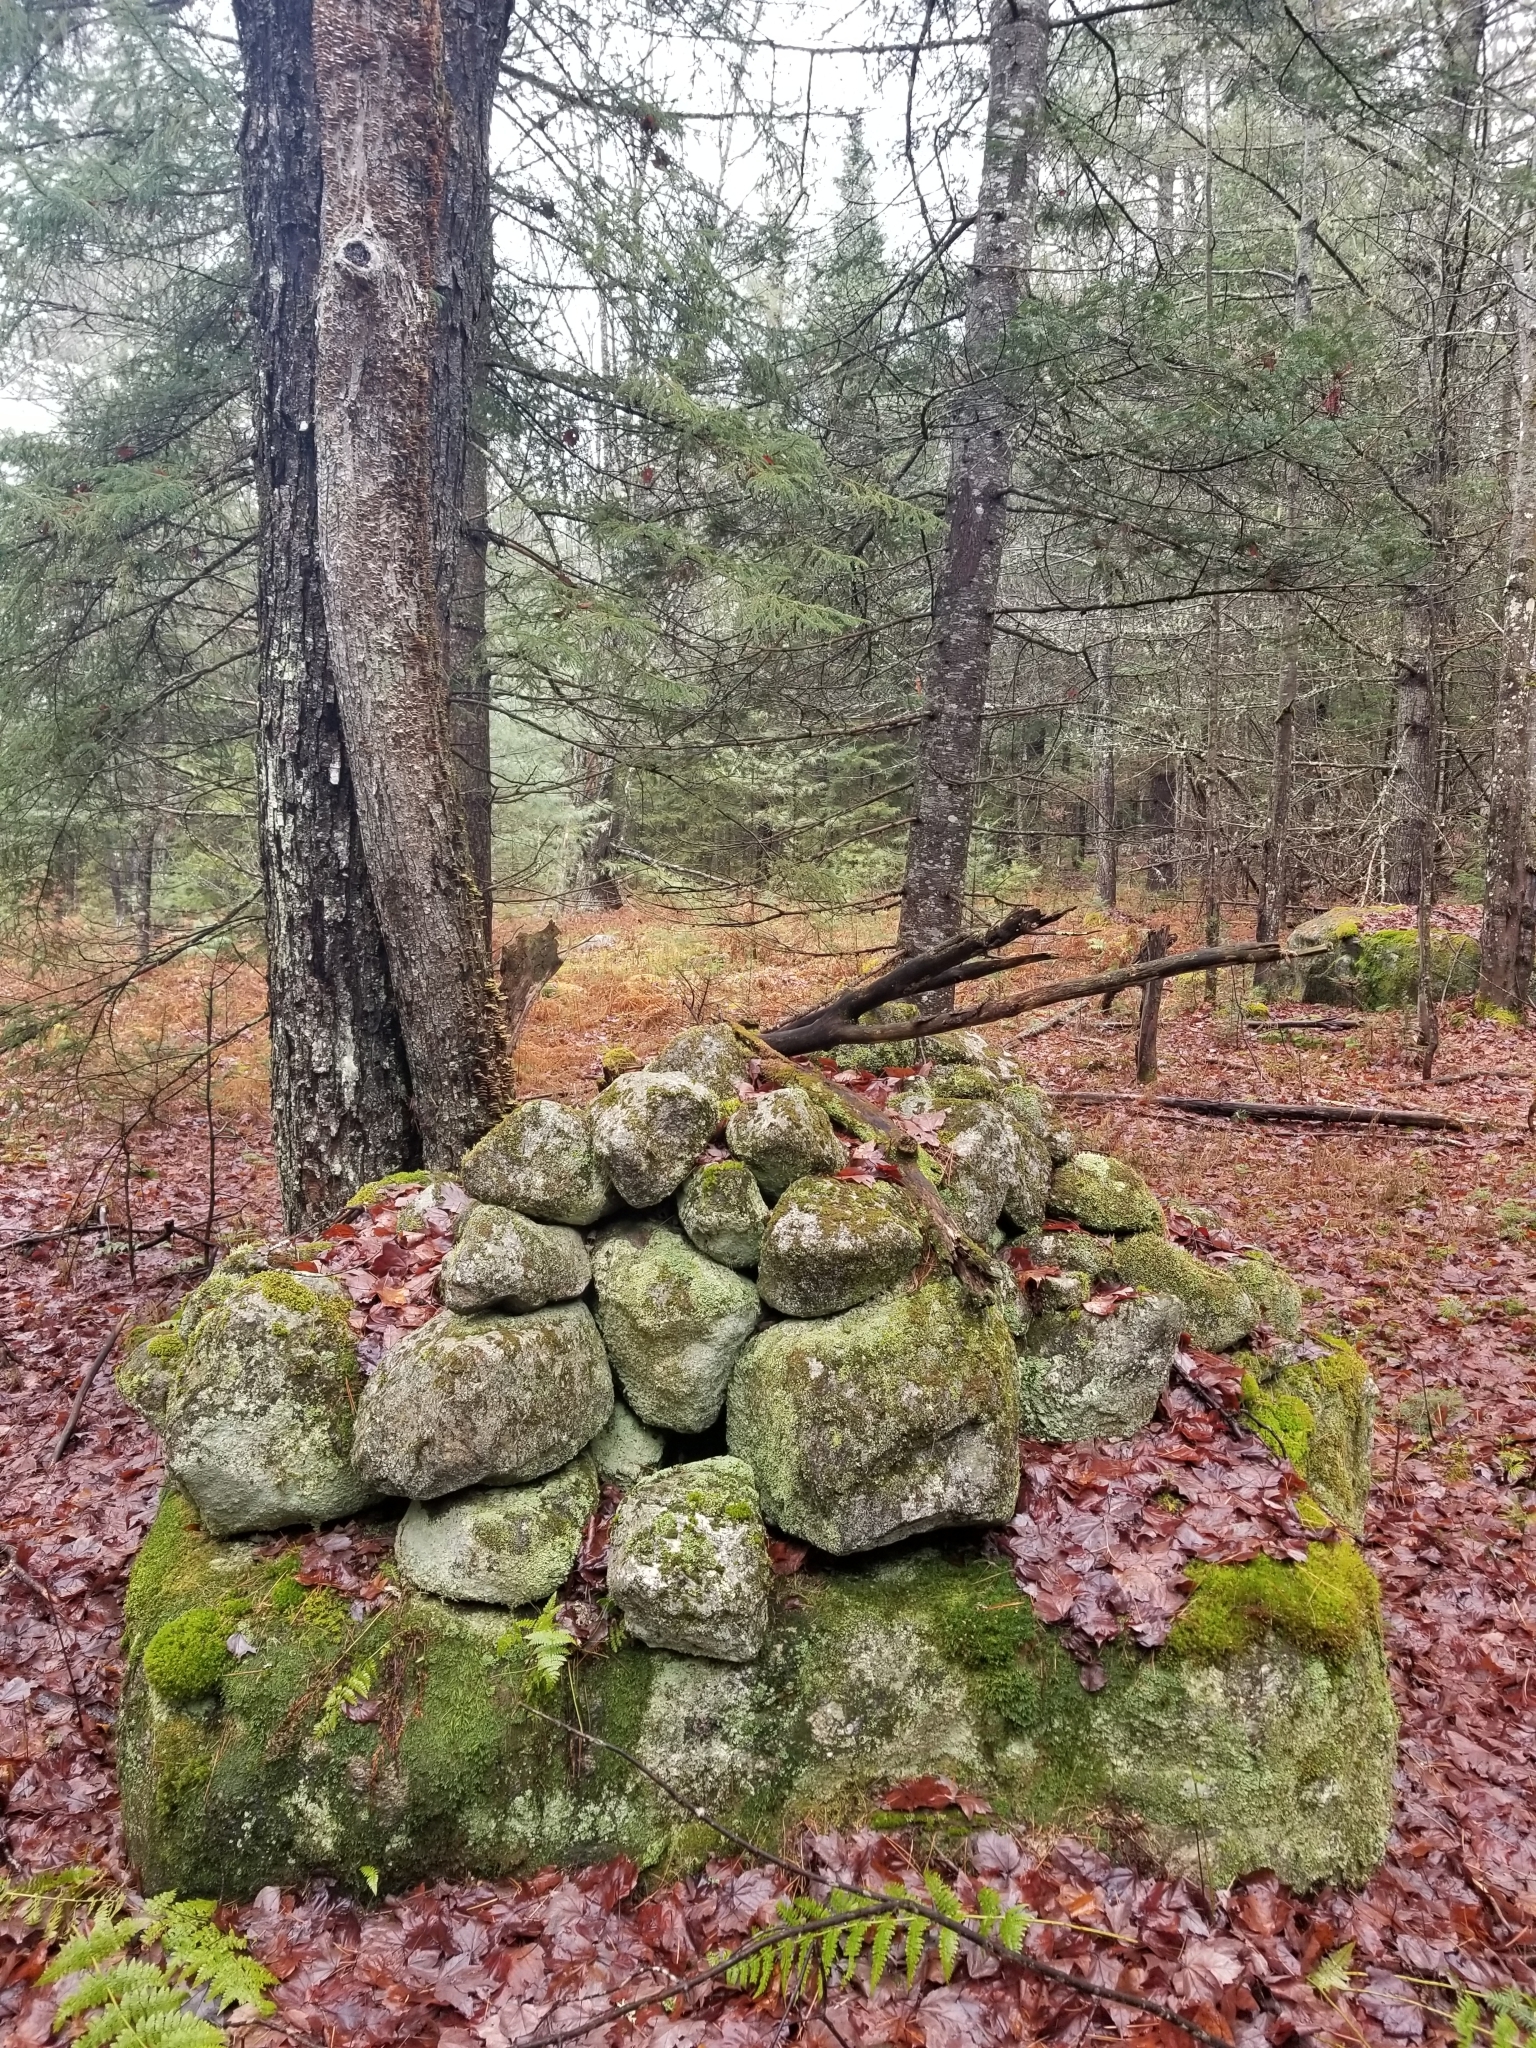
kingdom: Plantae
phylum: Tracheophyta
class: Pinopsida
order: Pinales
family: Pinaceae
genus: Abies
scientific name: Abies balsamea
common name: Balsam fir
